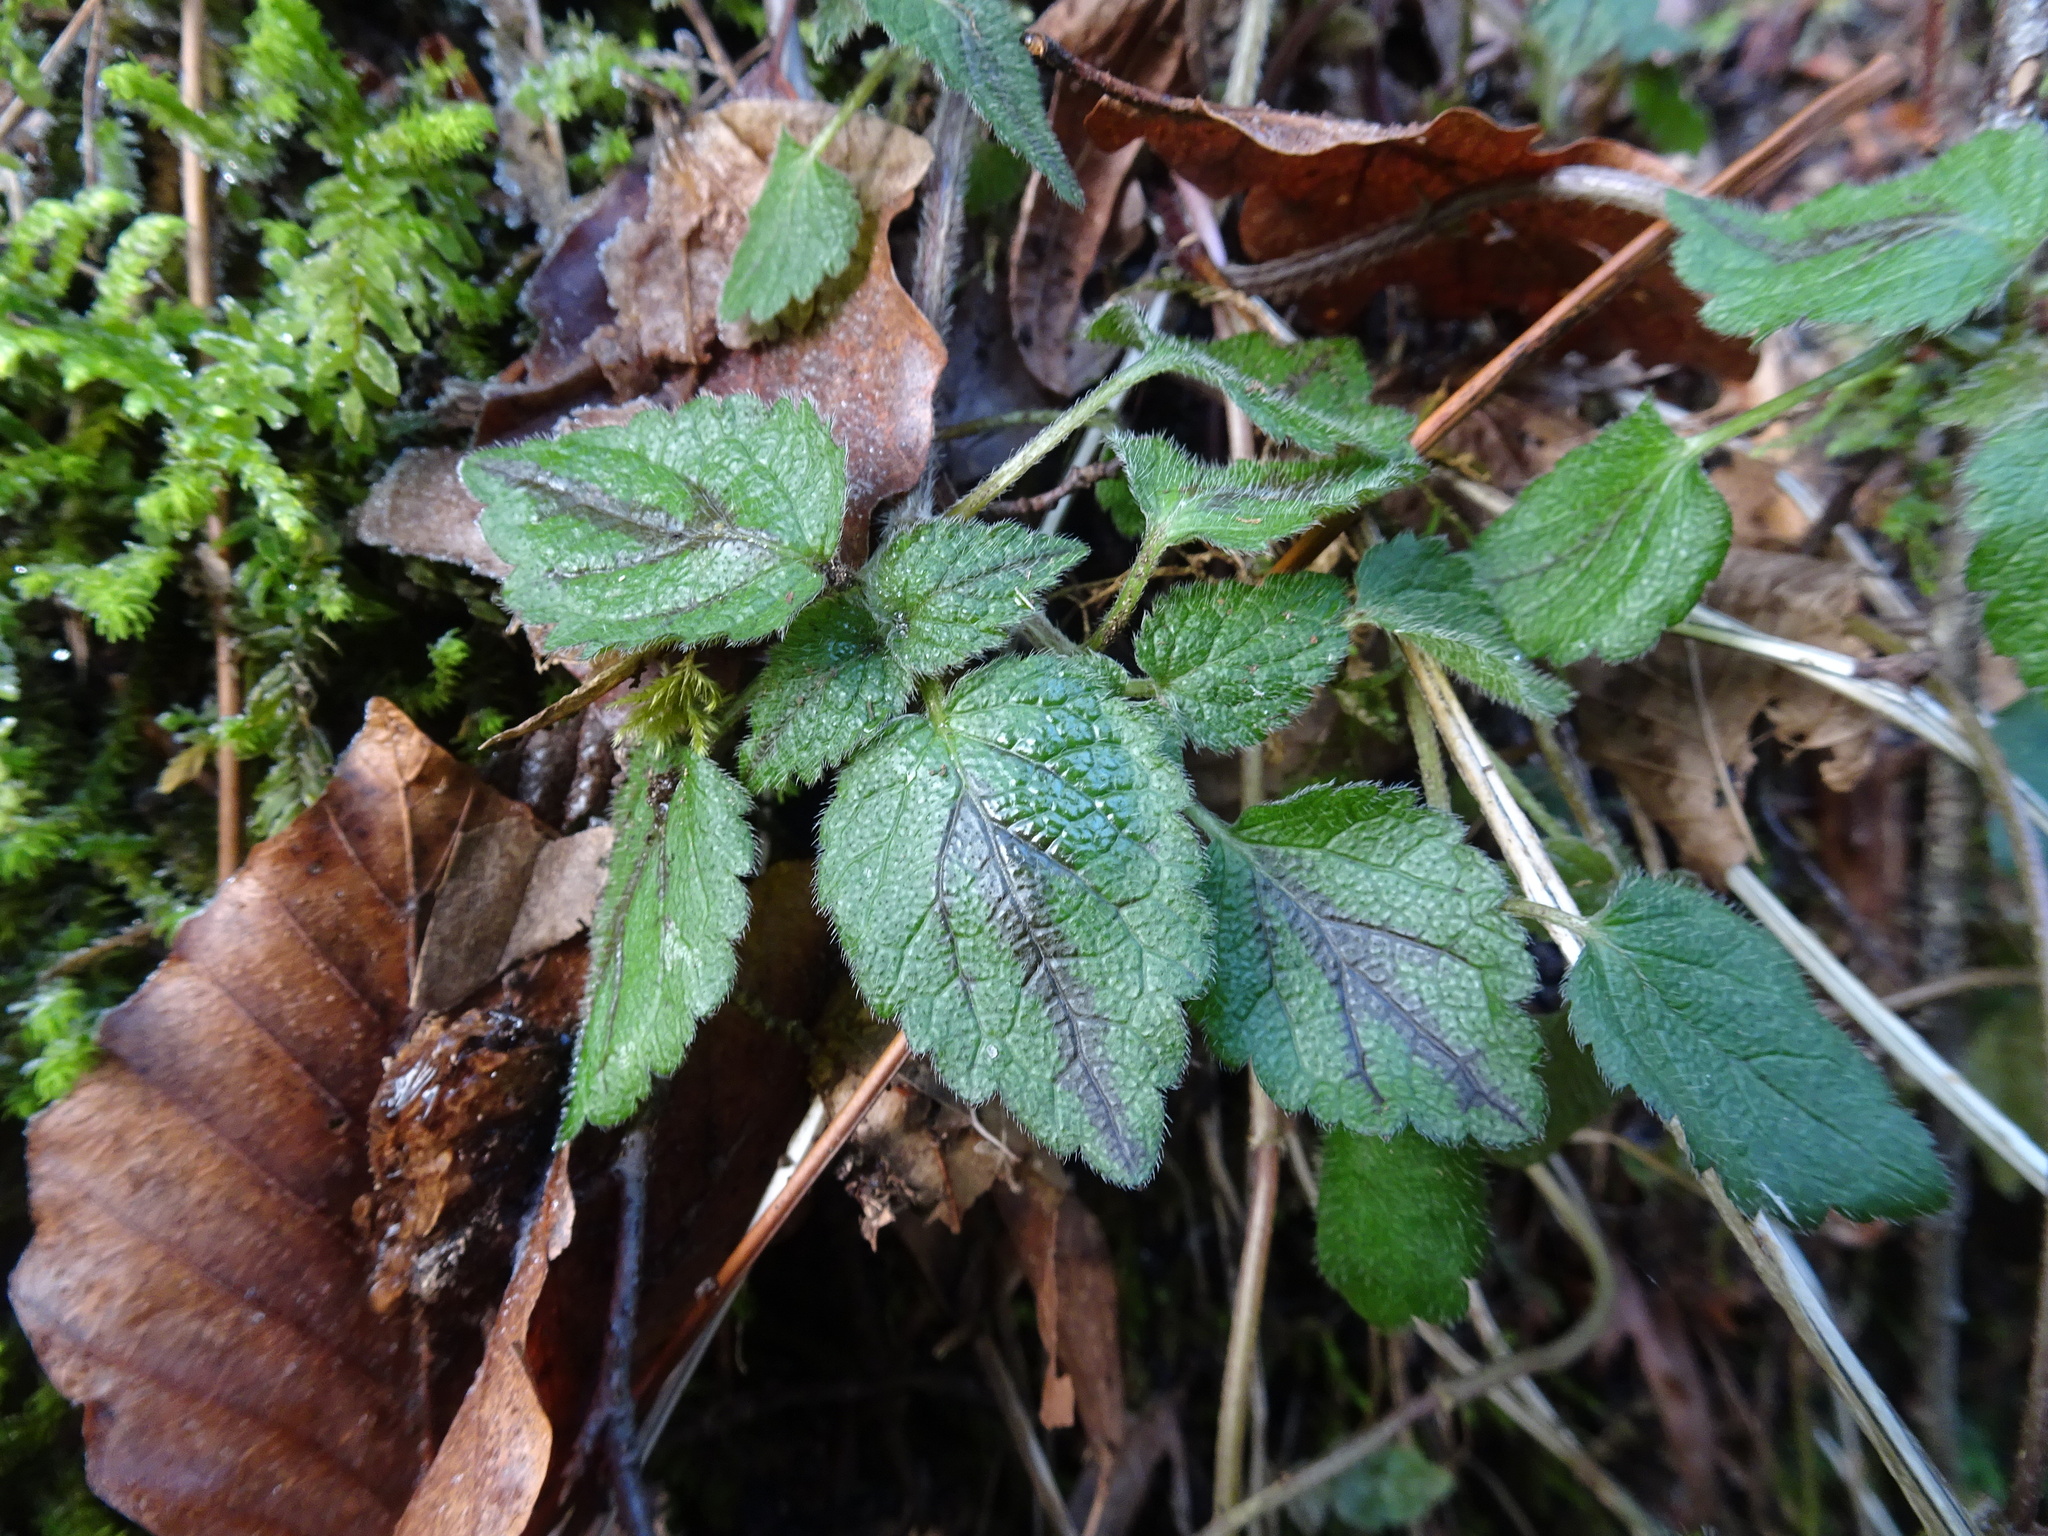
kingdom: Plantae
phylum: Tracheophyta
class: Magnoliopsida
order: Lamiales
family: Lamiaceae
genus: Lamium
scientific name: Lamium galeobdolon
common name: Yellow archangel
